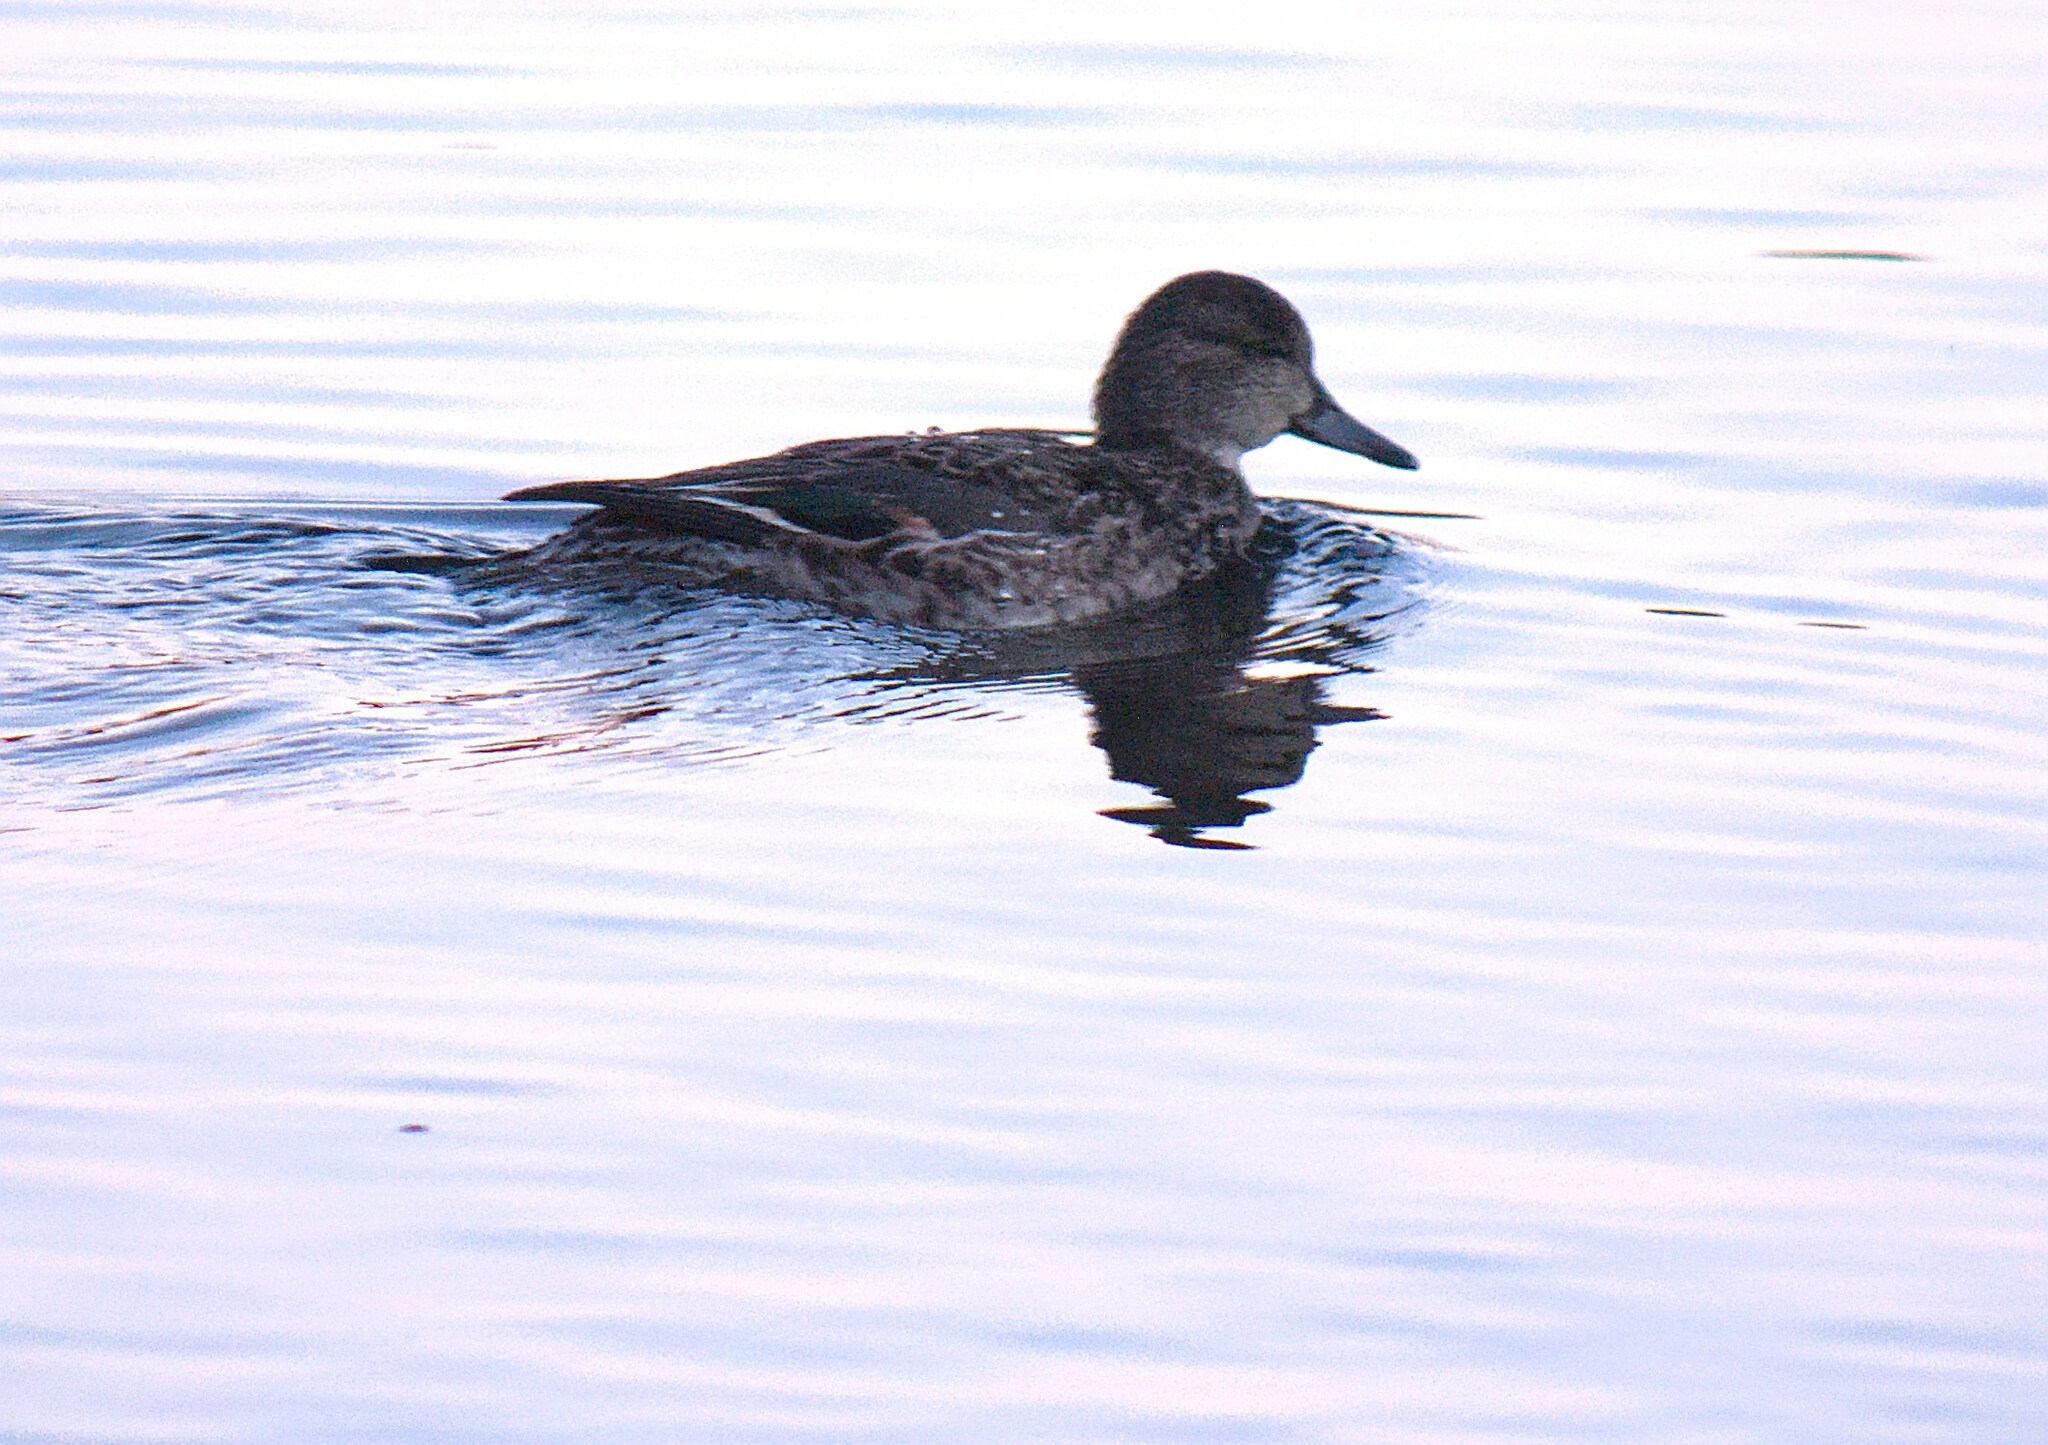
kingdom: Animalia
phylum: Chordata
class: Aves
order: Anseriformes
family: Anatidae
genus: Anas
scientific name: Anas crecca
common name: Eurasian teal
